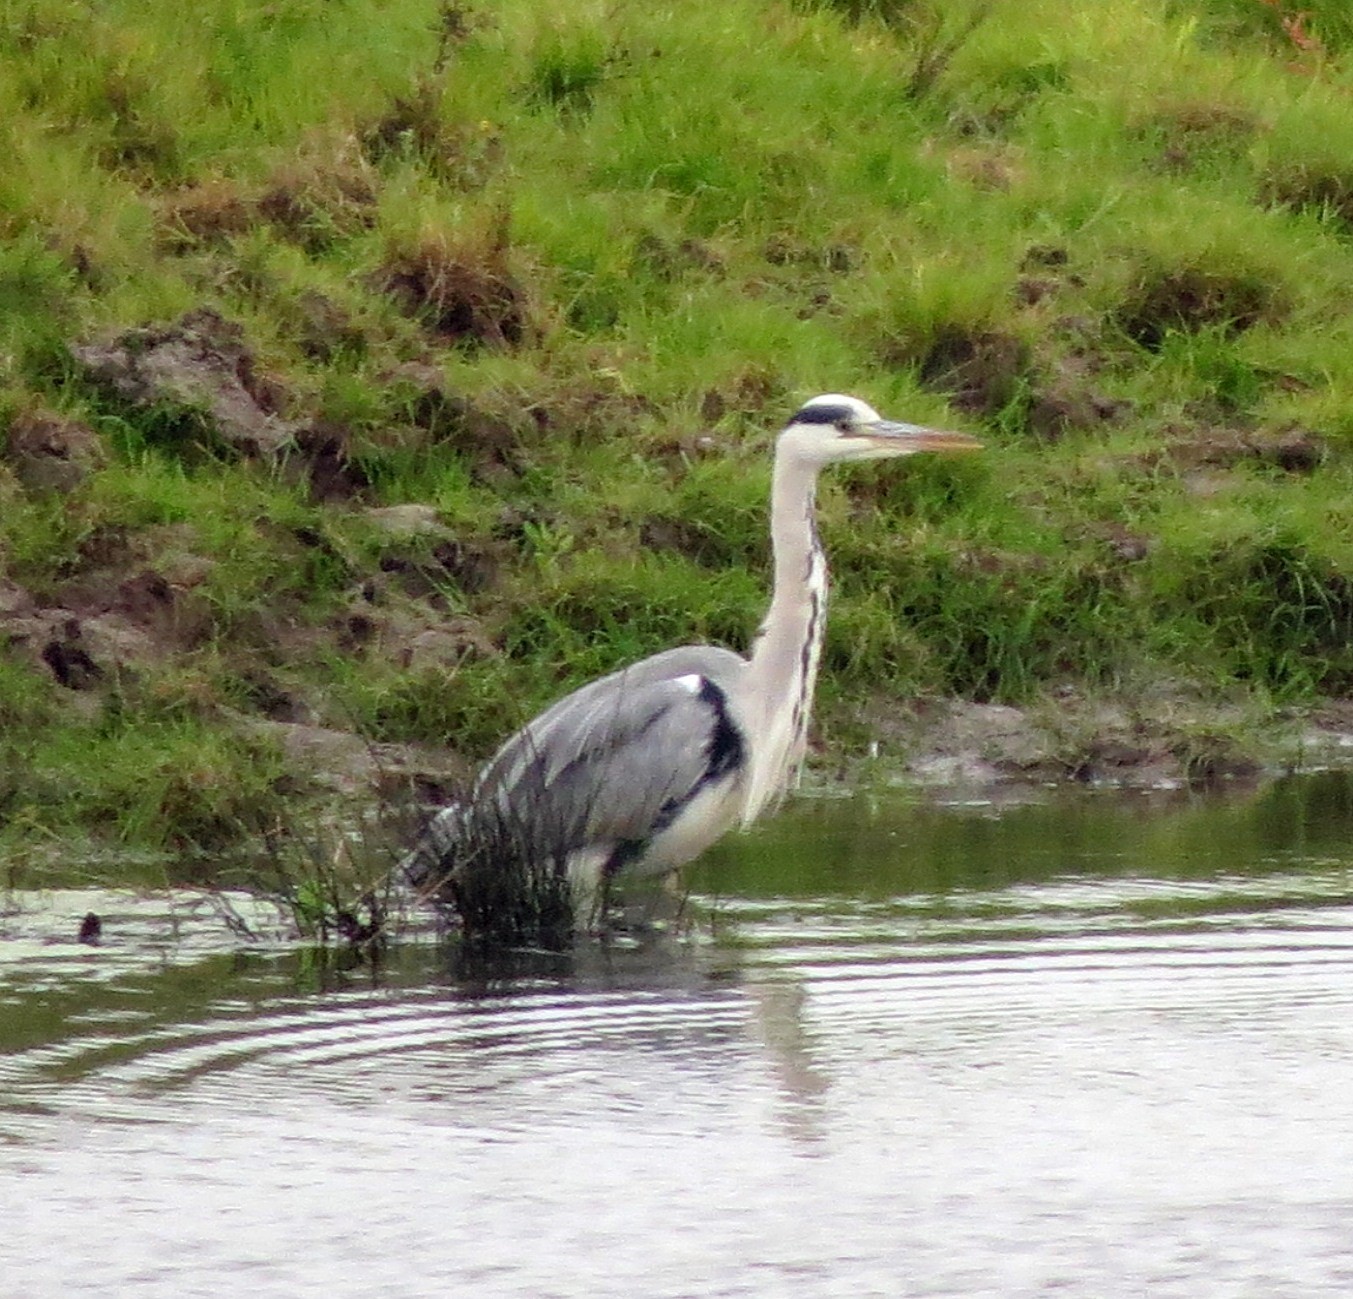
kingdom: Animalia
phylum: Chordata
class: Aves
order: Pelecaniformes
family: Ardeidae
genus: Ardea
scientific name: Ardea cinerea
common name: Grey heron
